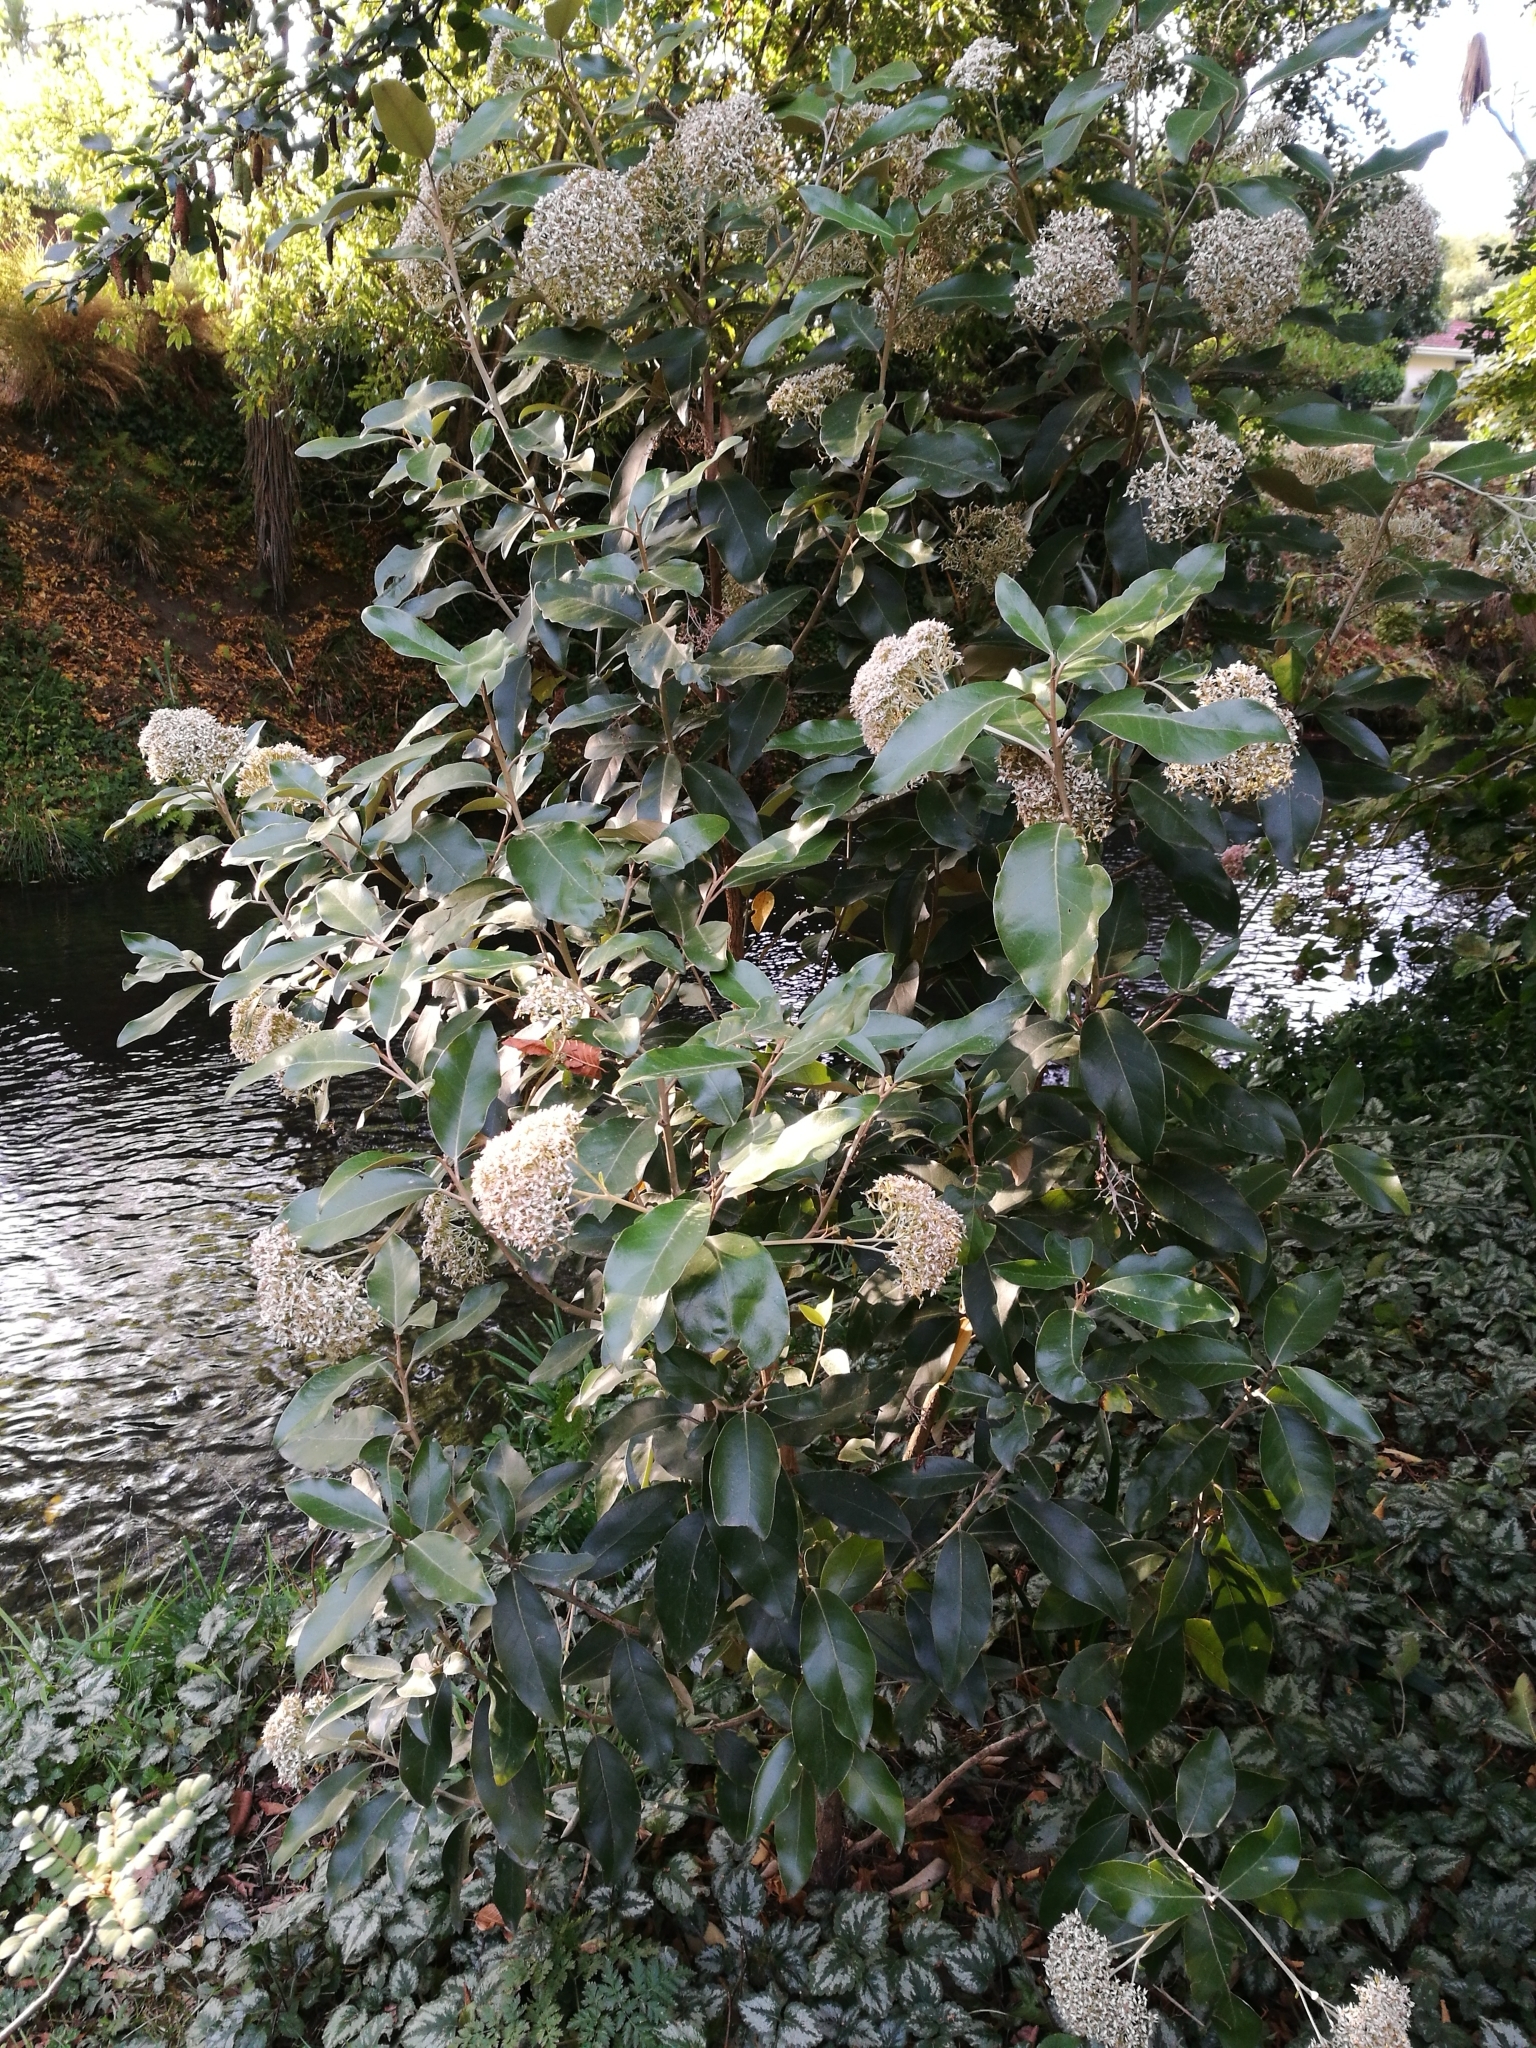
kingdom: Plantae
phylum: Tracheophyta
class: Magnoliopsida
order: Asterales
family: Asteraceae
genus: Olearia
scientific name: Olearia avicenniifolia
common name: Mangrove-leaf daisybush
